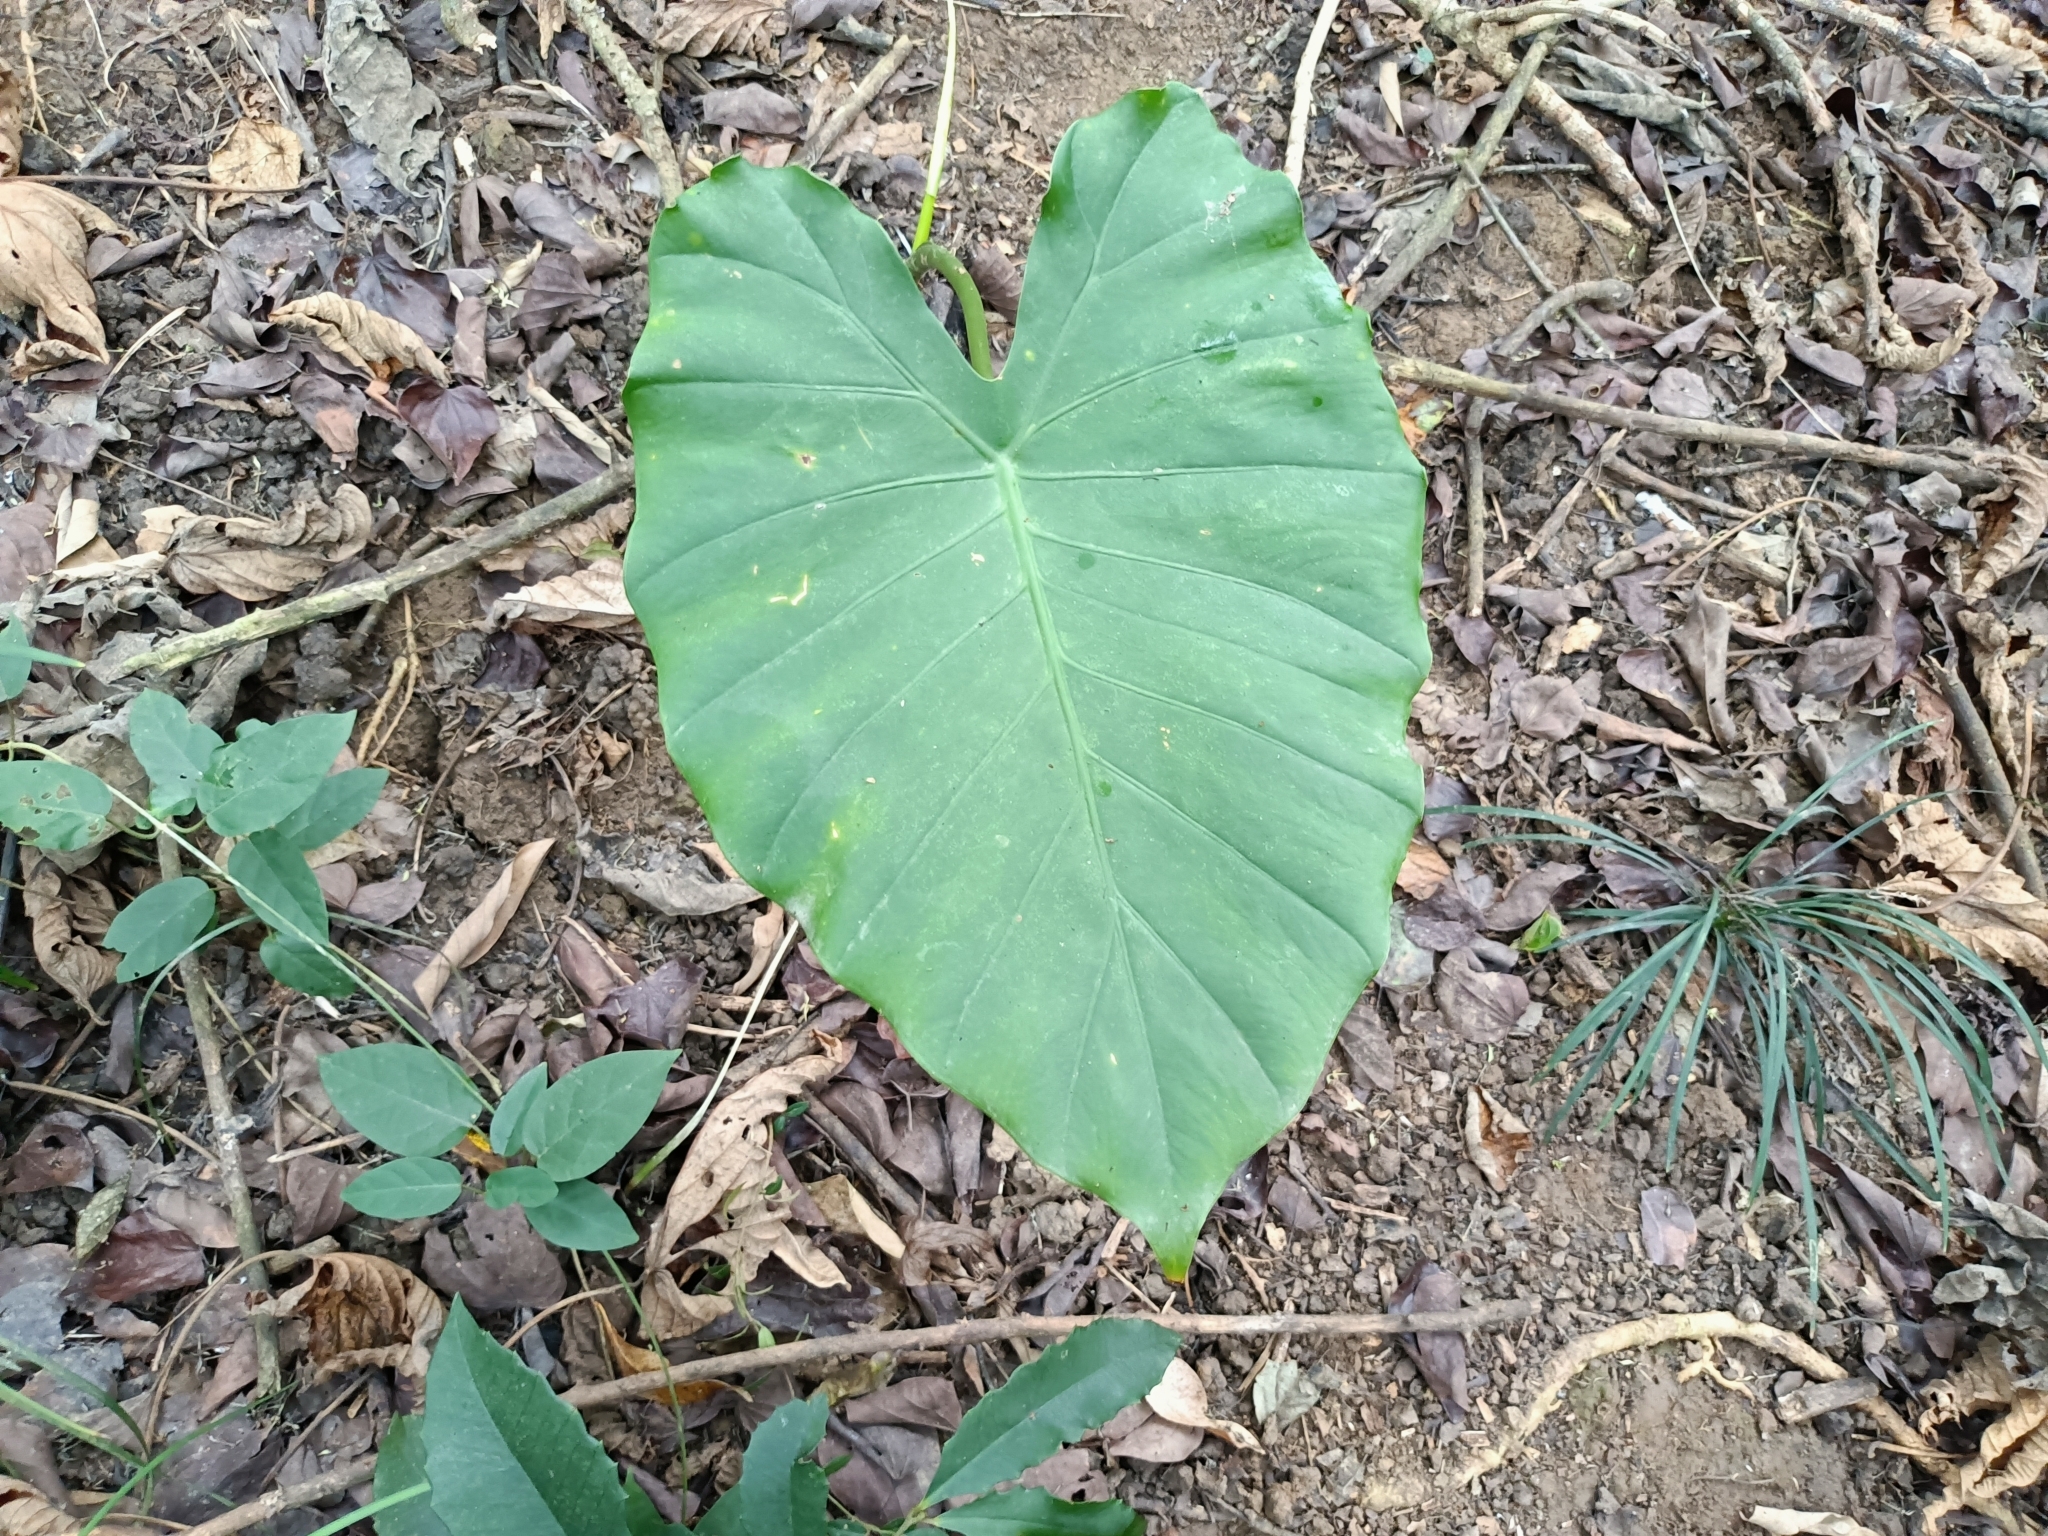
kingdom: Plantae
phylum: Tracheophyta
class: Liliopsida
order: Alismatales
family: Araceae
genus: Alocasia
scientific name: Alocasia odora
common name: Asian taro
